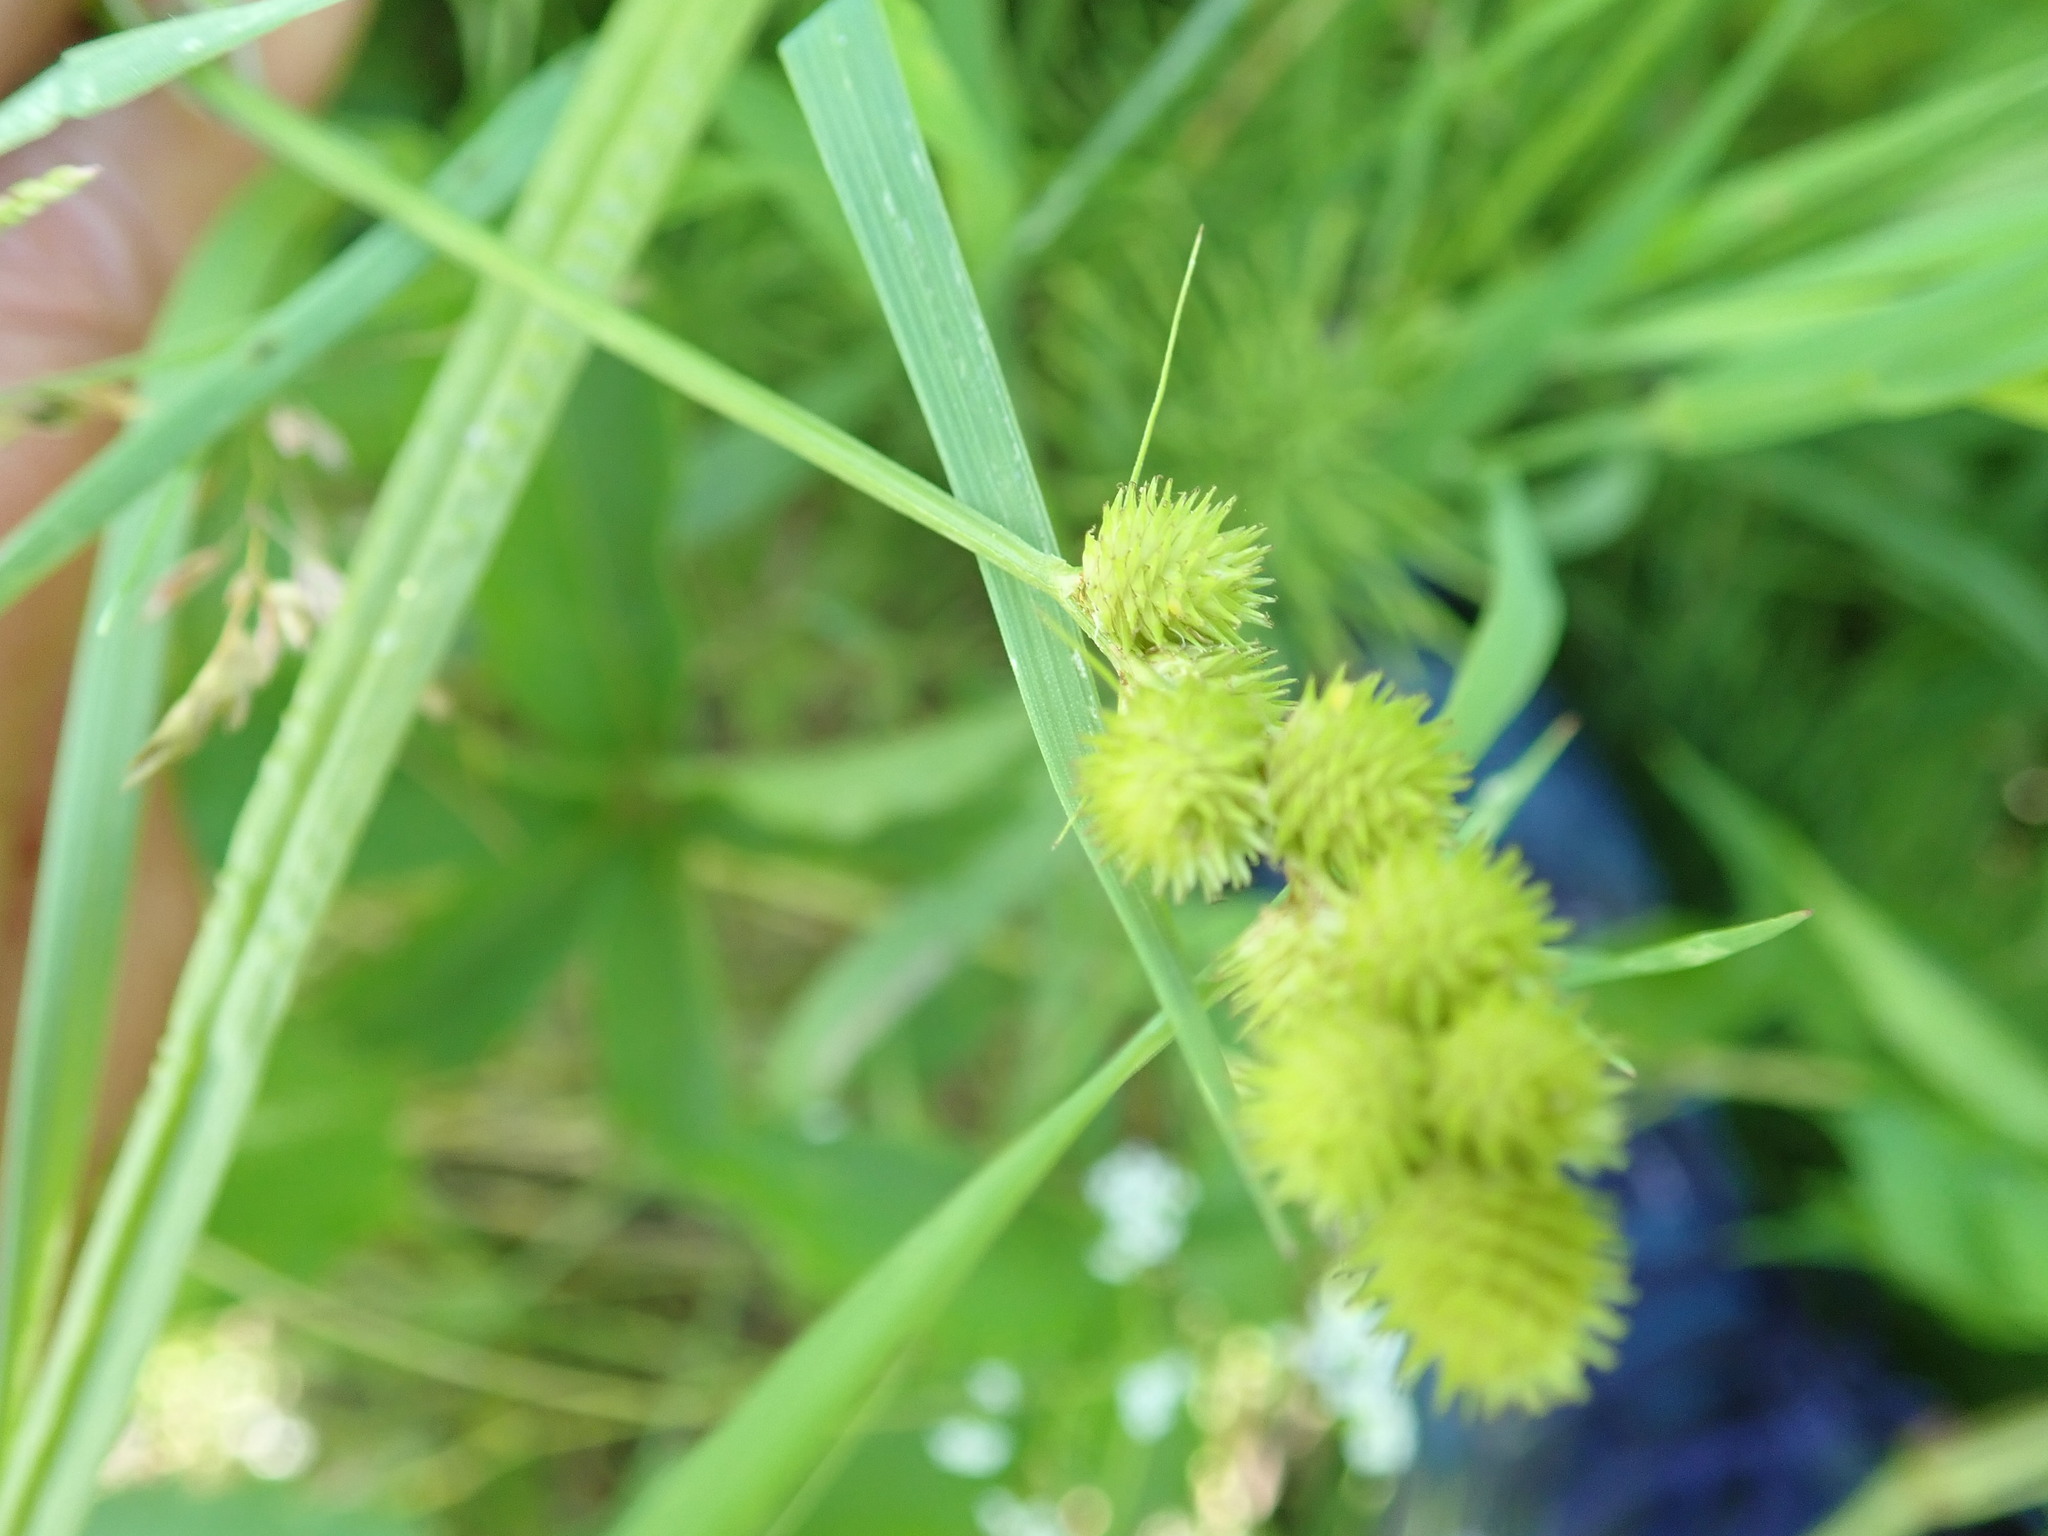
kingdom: Plantae
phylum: Tracheophyta
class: Liliopsida
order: Poales
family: Cyperaceae
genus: Carex
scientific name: Carex cristatella
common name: Crested oval sedge
